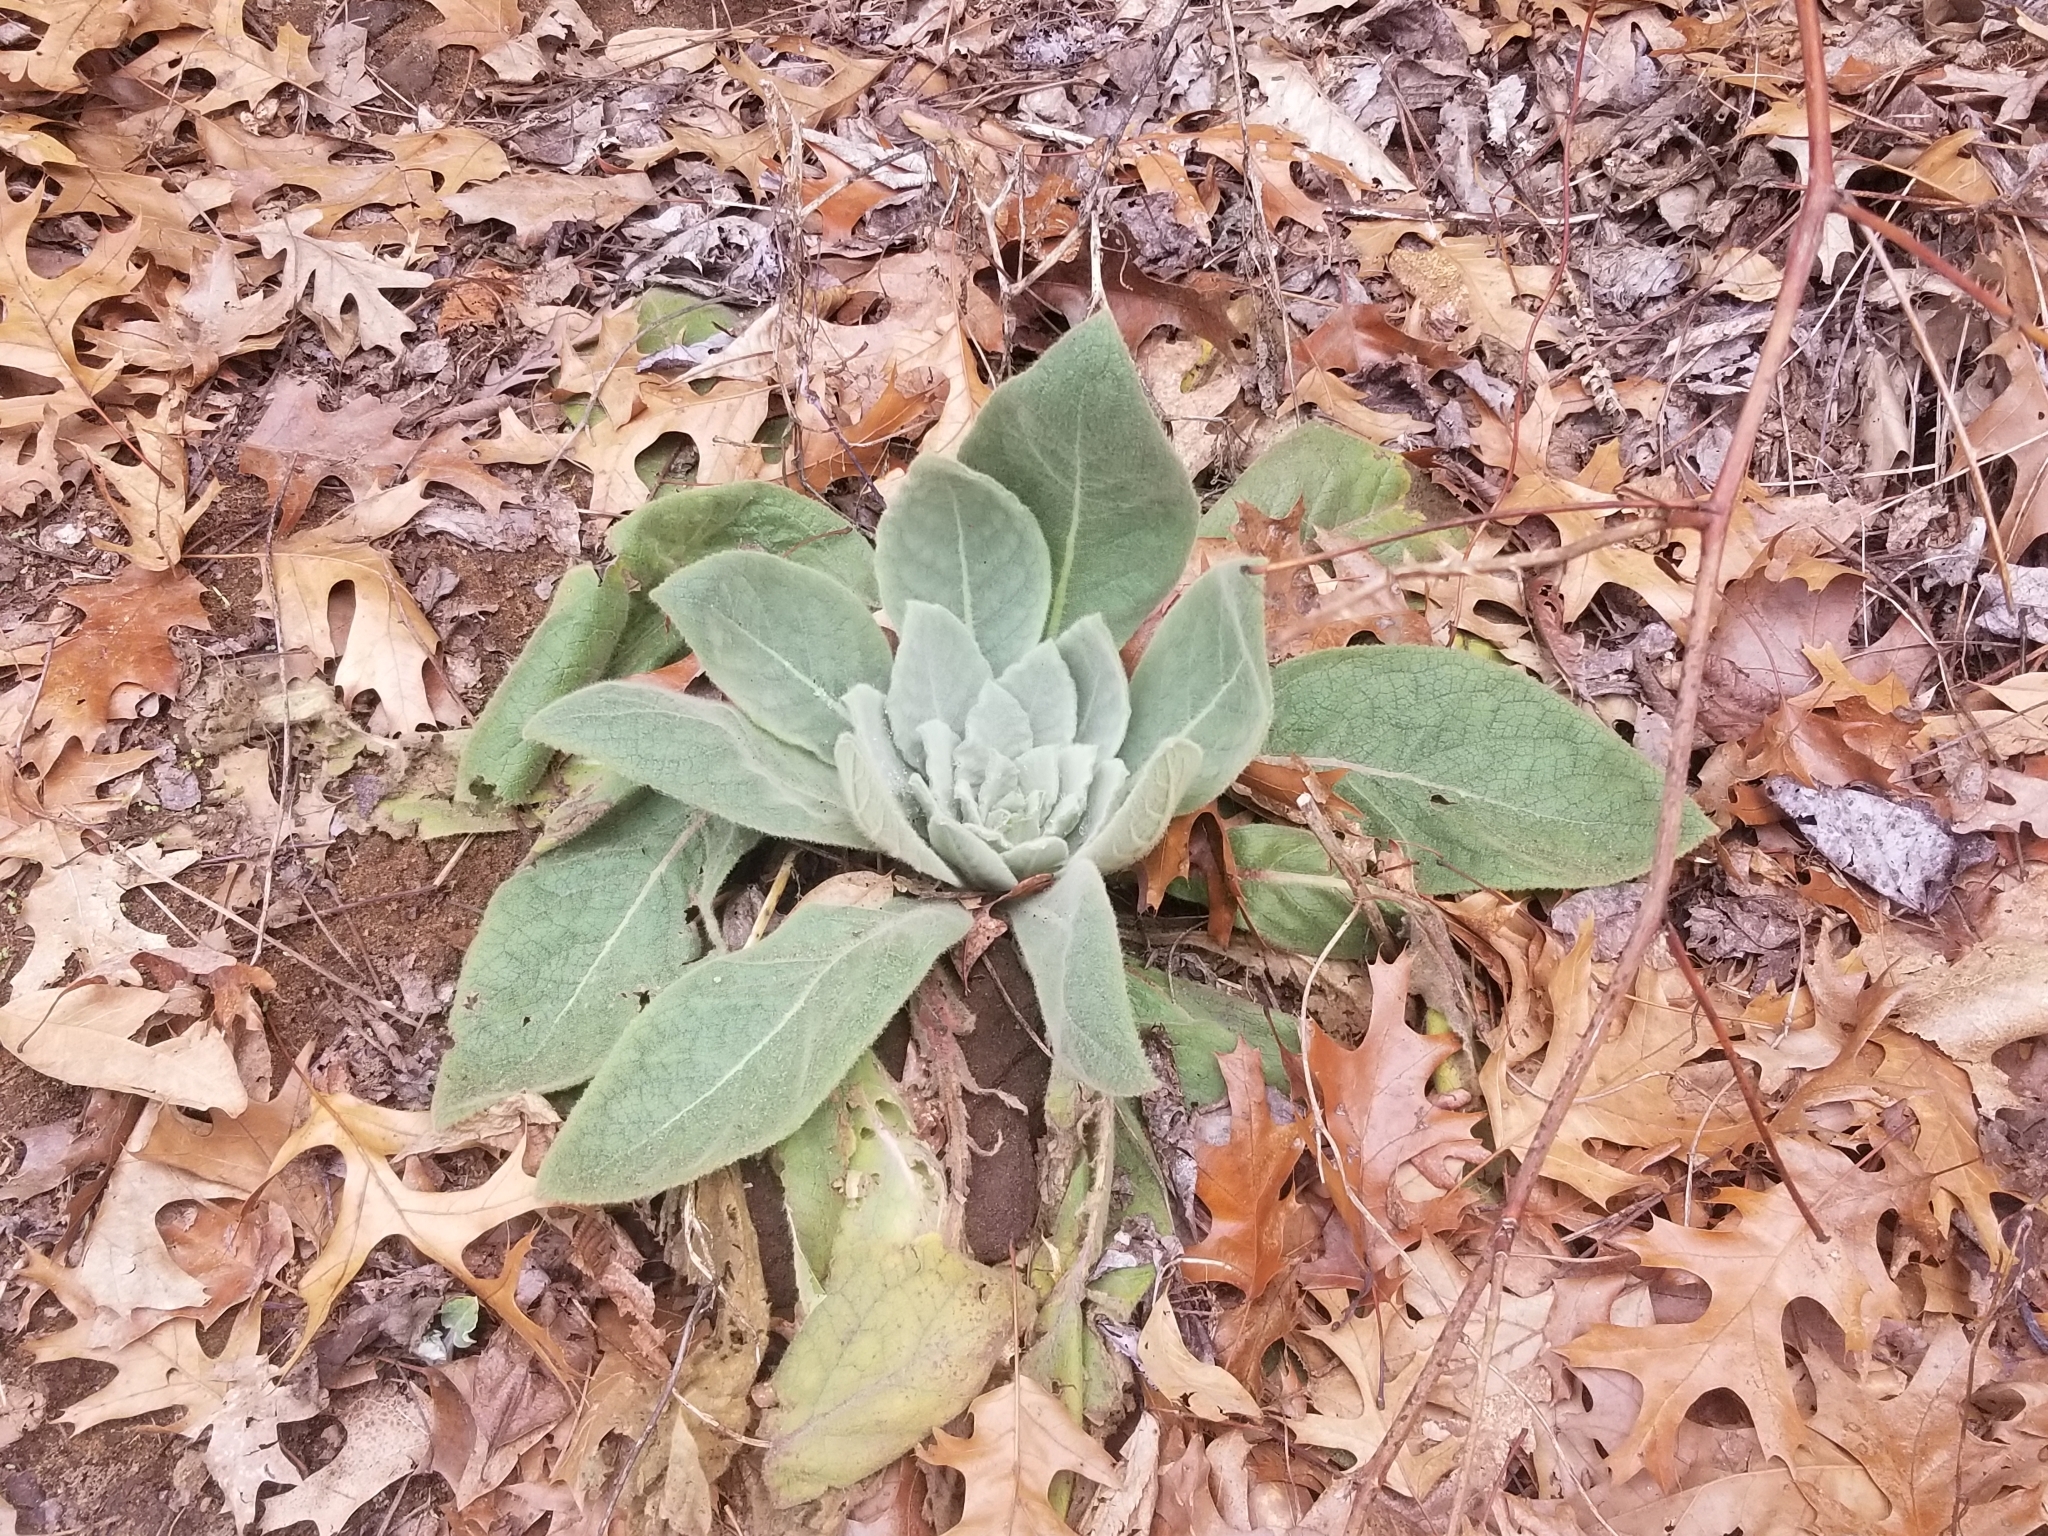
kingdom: Plantae
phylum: Tracheophyta
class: Magnoliopsida
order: Lamiales
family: Scrophulariaceae
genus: Verbascum
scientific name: Verbascum thapsus
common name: Common mullein
